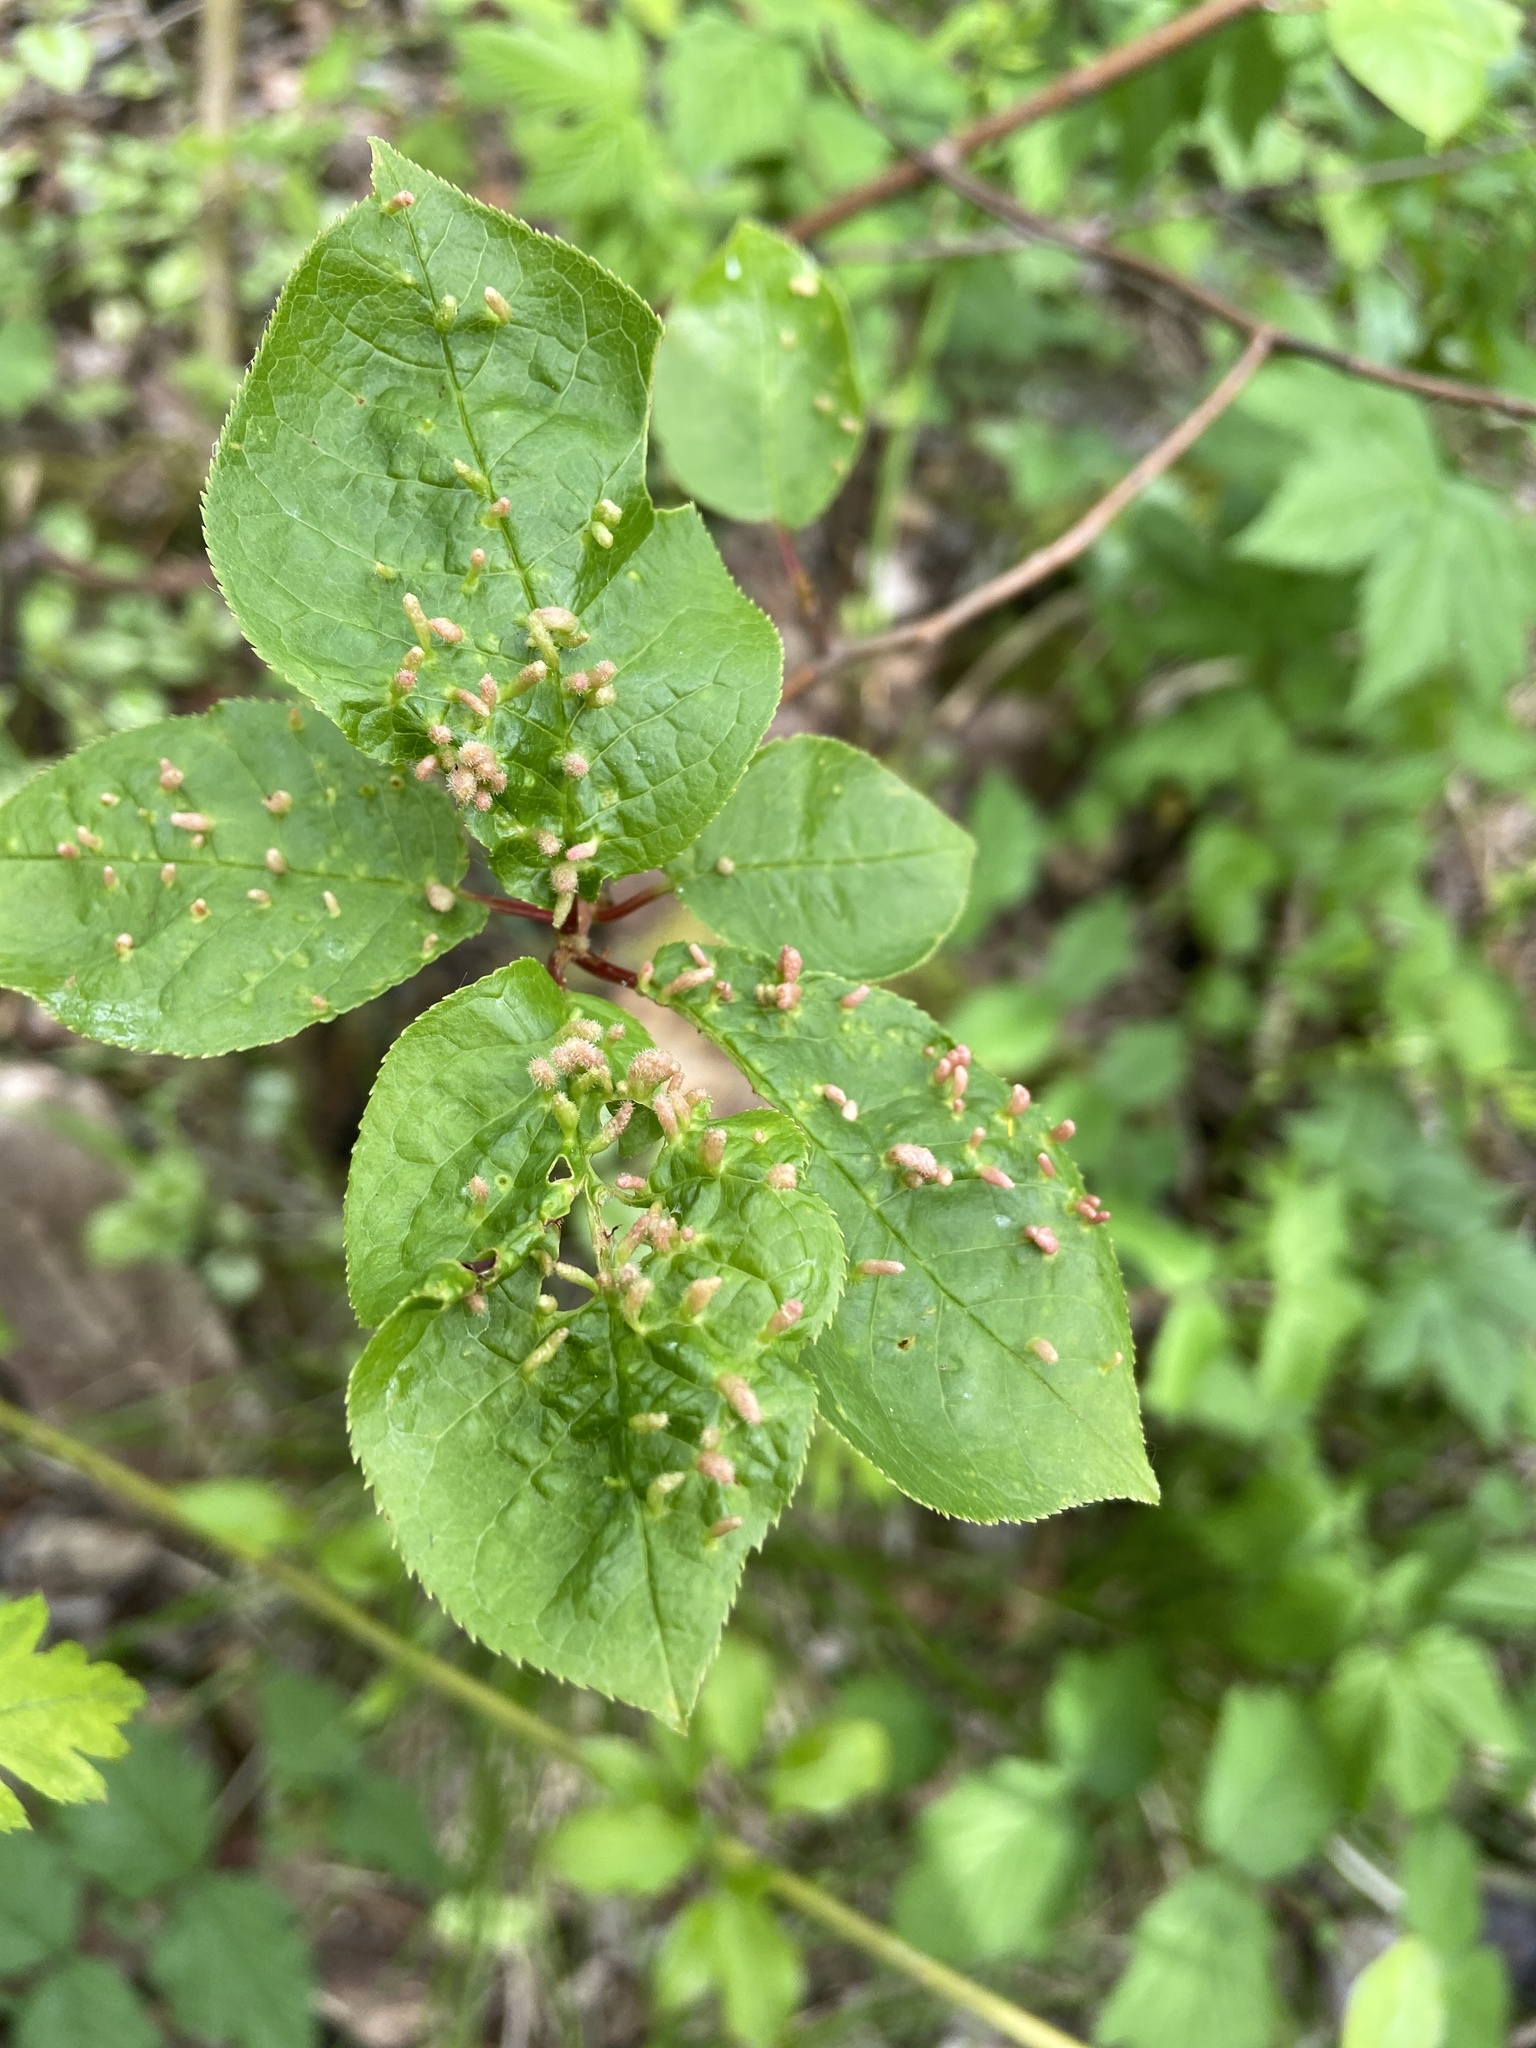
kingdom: Animalia
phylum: Arthropoda
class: Arachnida
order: Trombidiformes
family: Eriophyidae
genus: Phyllocoptes
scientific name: Phyllocoptes eupadi
